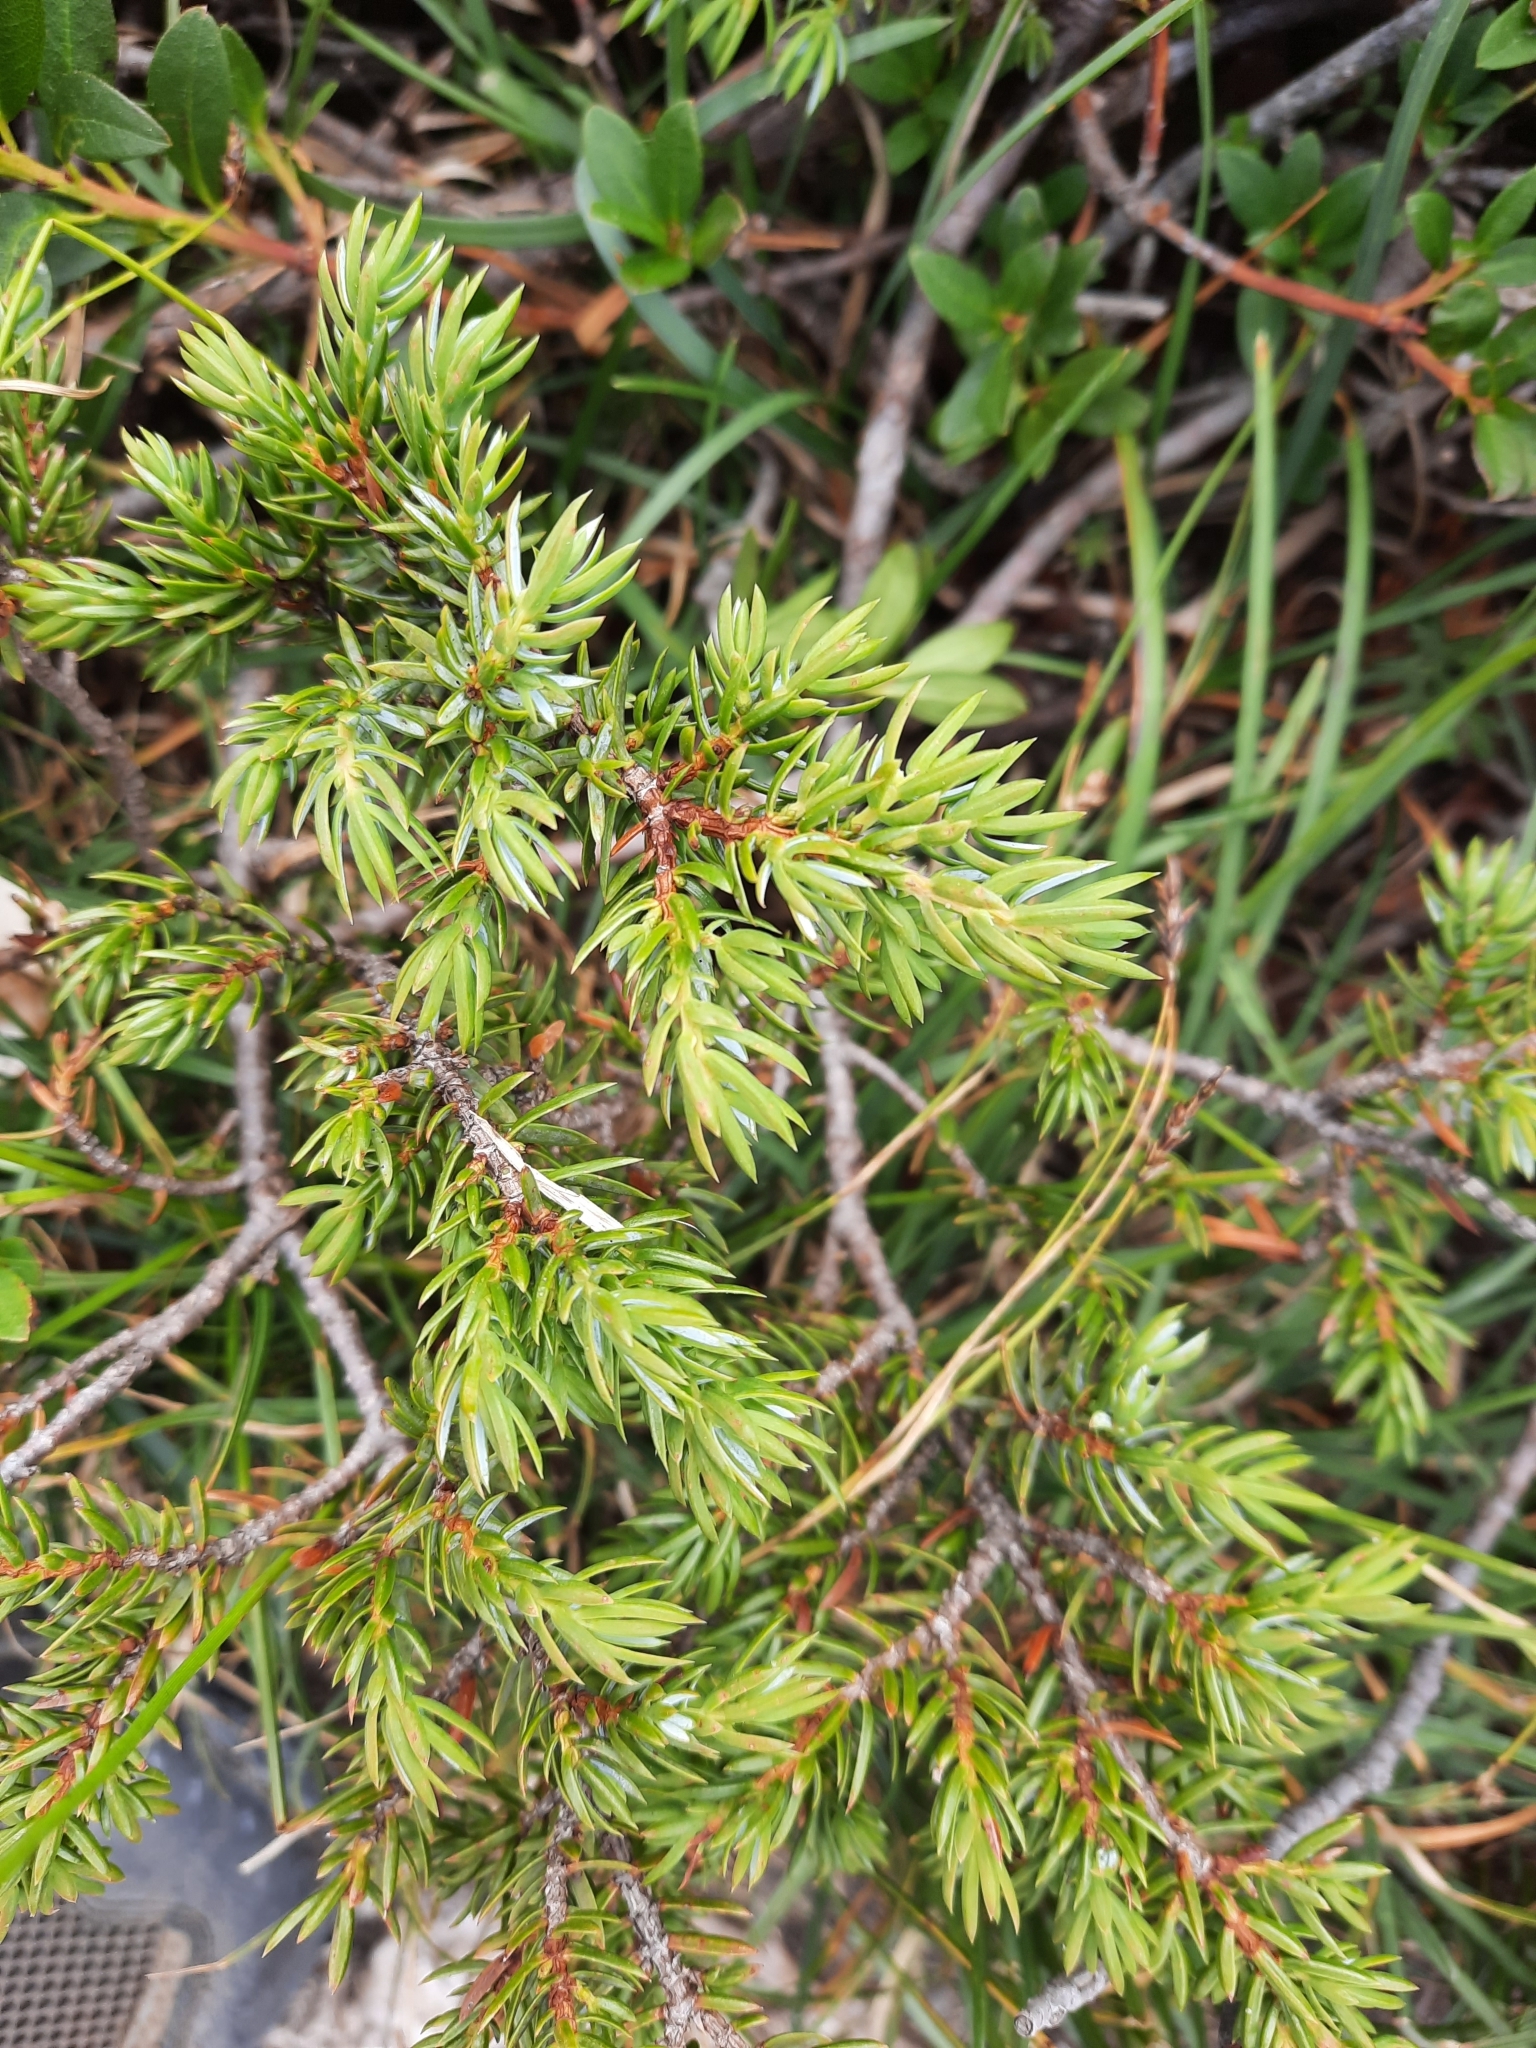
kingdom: Plantae
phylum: Tracheophyta
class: Pinopsida
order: Pinales
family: Cupressaceae
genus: Juniperus
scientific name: Juniperus communis
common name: Common juniper
